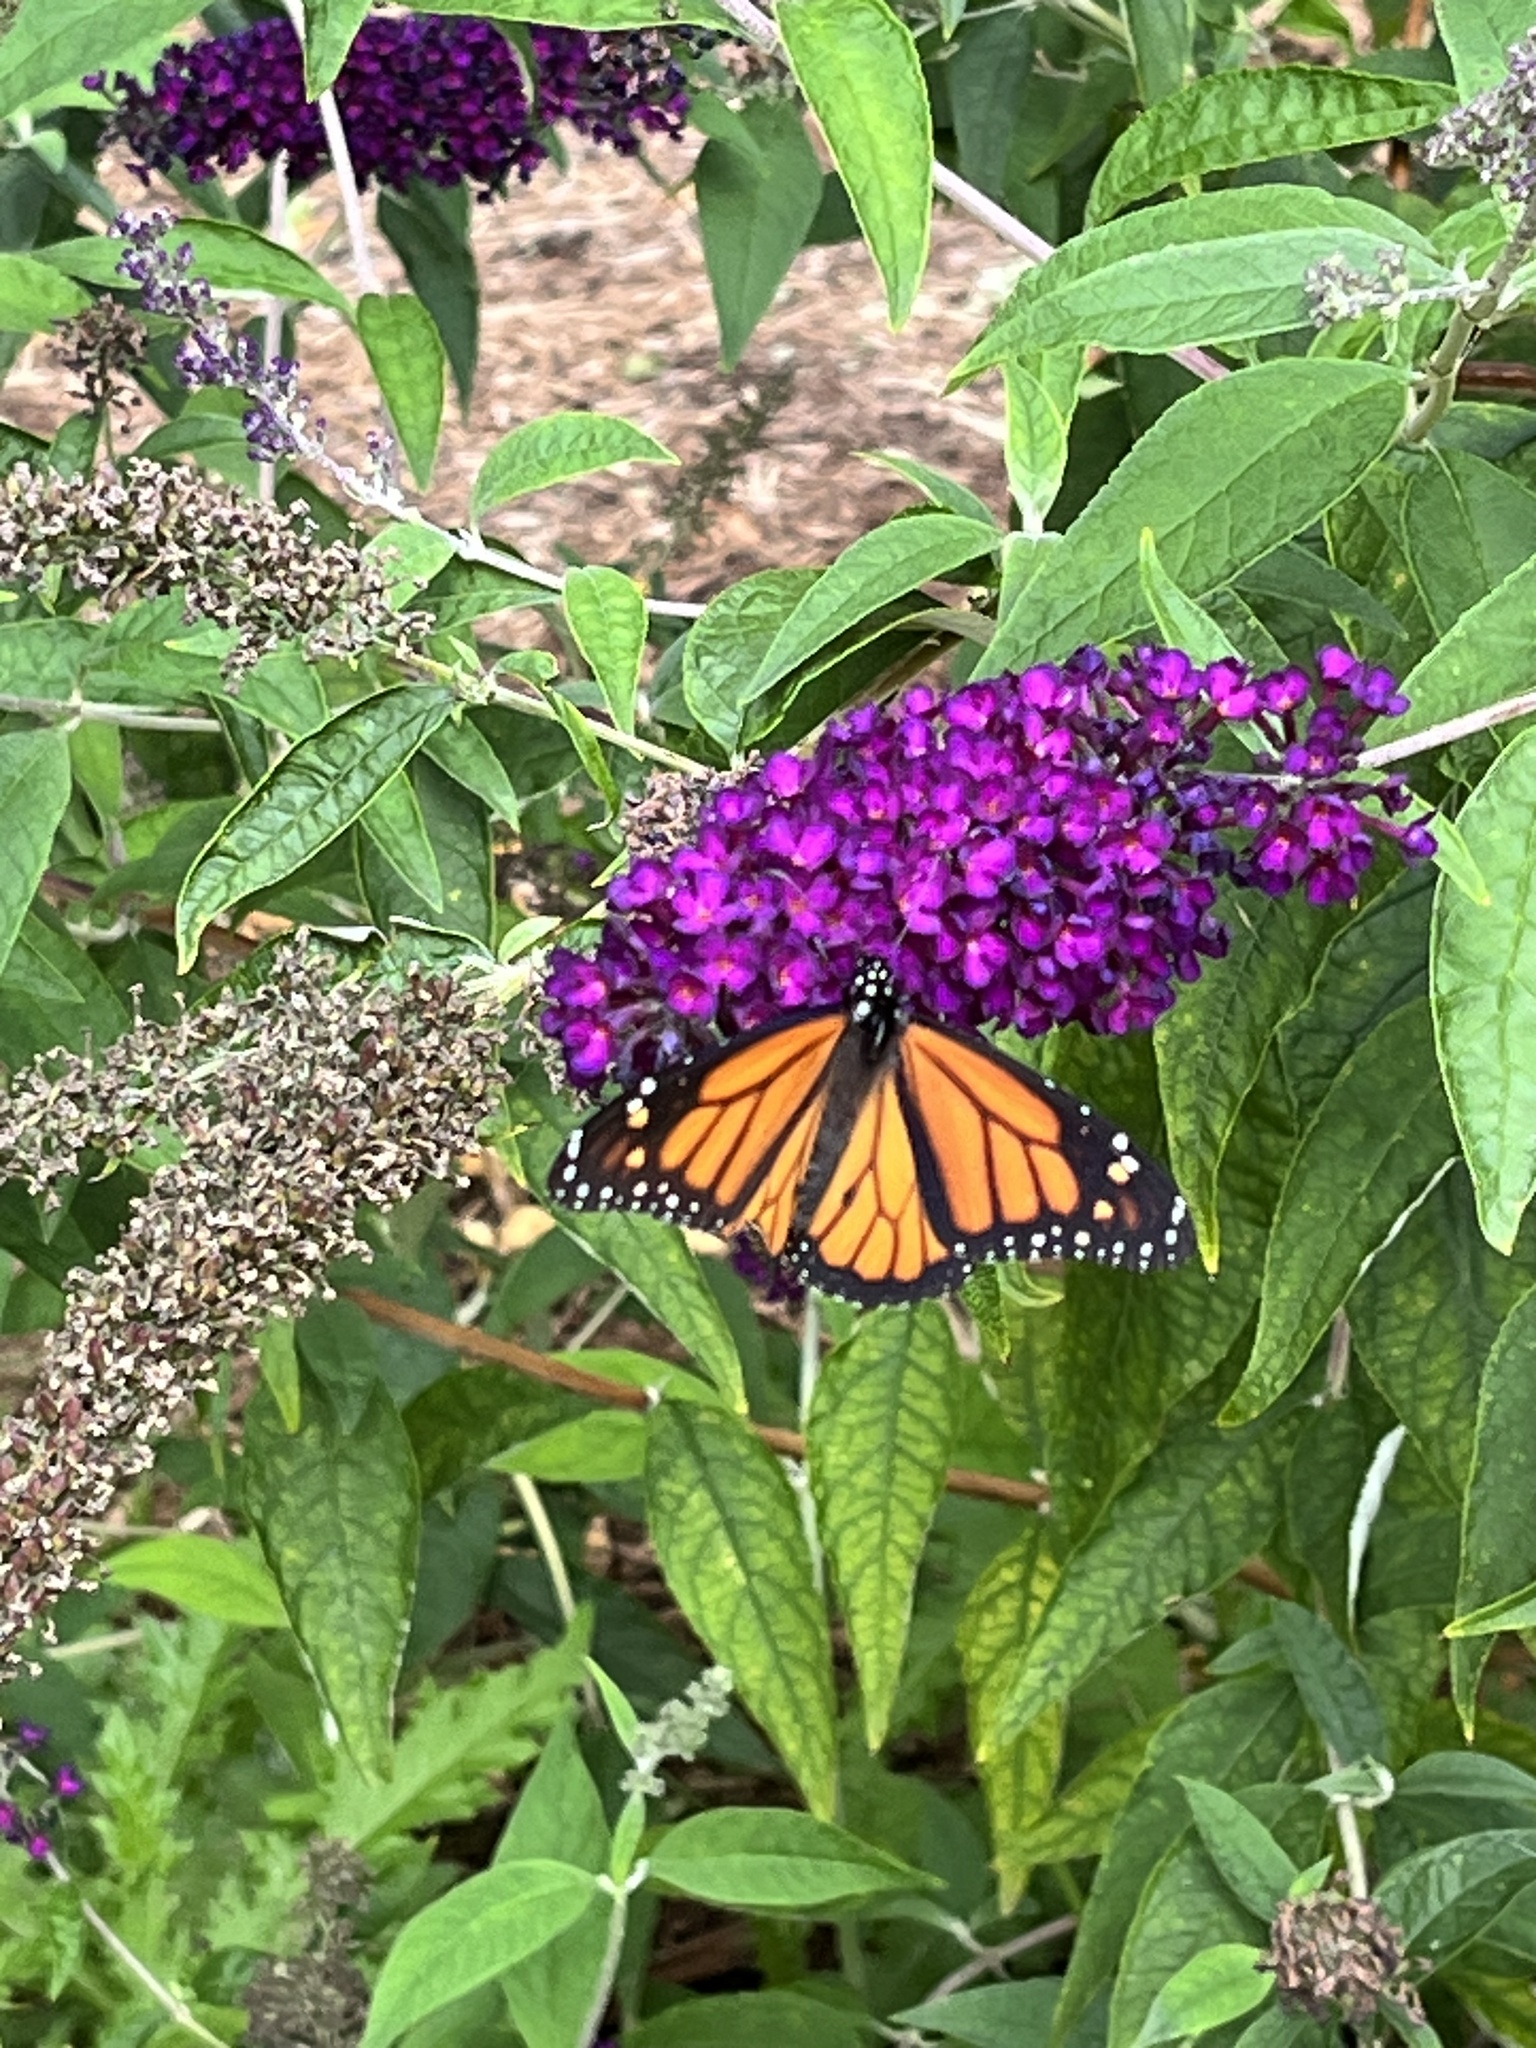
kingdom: Animalia
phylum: Arthropoda
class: Insecta
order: Lepidoptera
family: Nymphalidae
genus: Danaus
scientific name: Danaus plexippus
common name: Monarch
